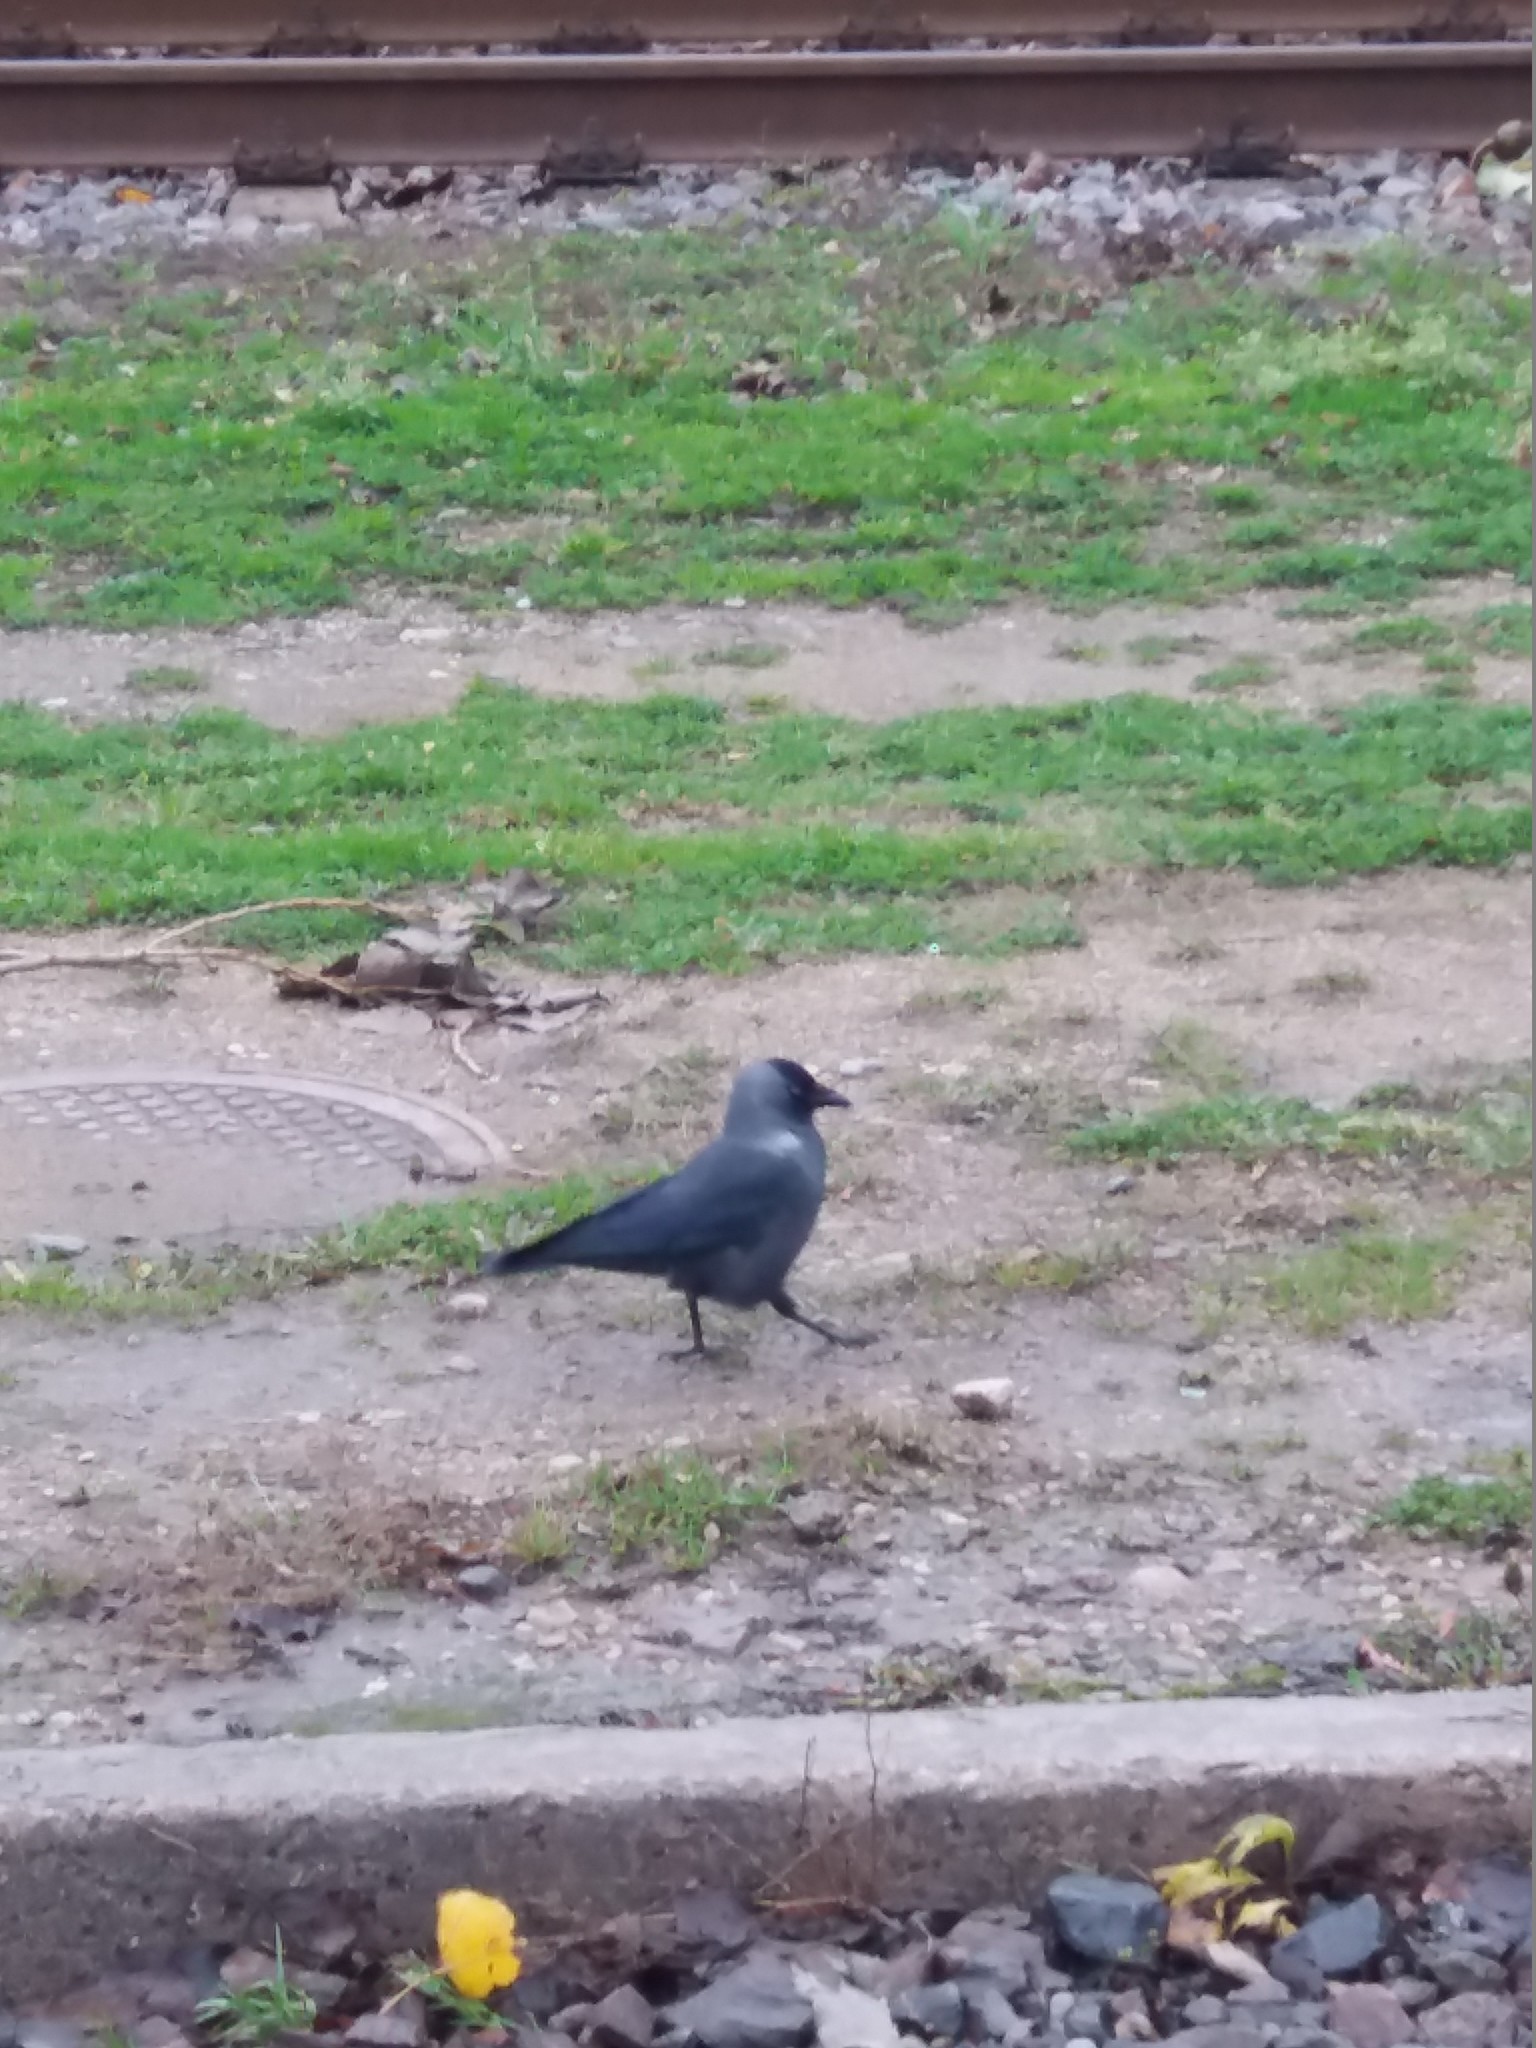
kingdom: Animalia
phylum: Chordata
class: Aves
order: Passeriformes
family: Corvidae
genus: Coloeus
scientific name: Coloeus monedula
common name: Western jackdaw
